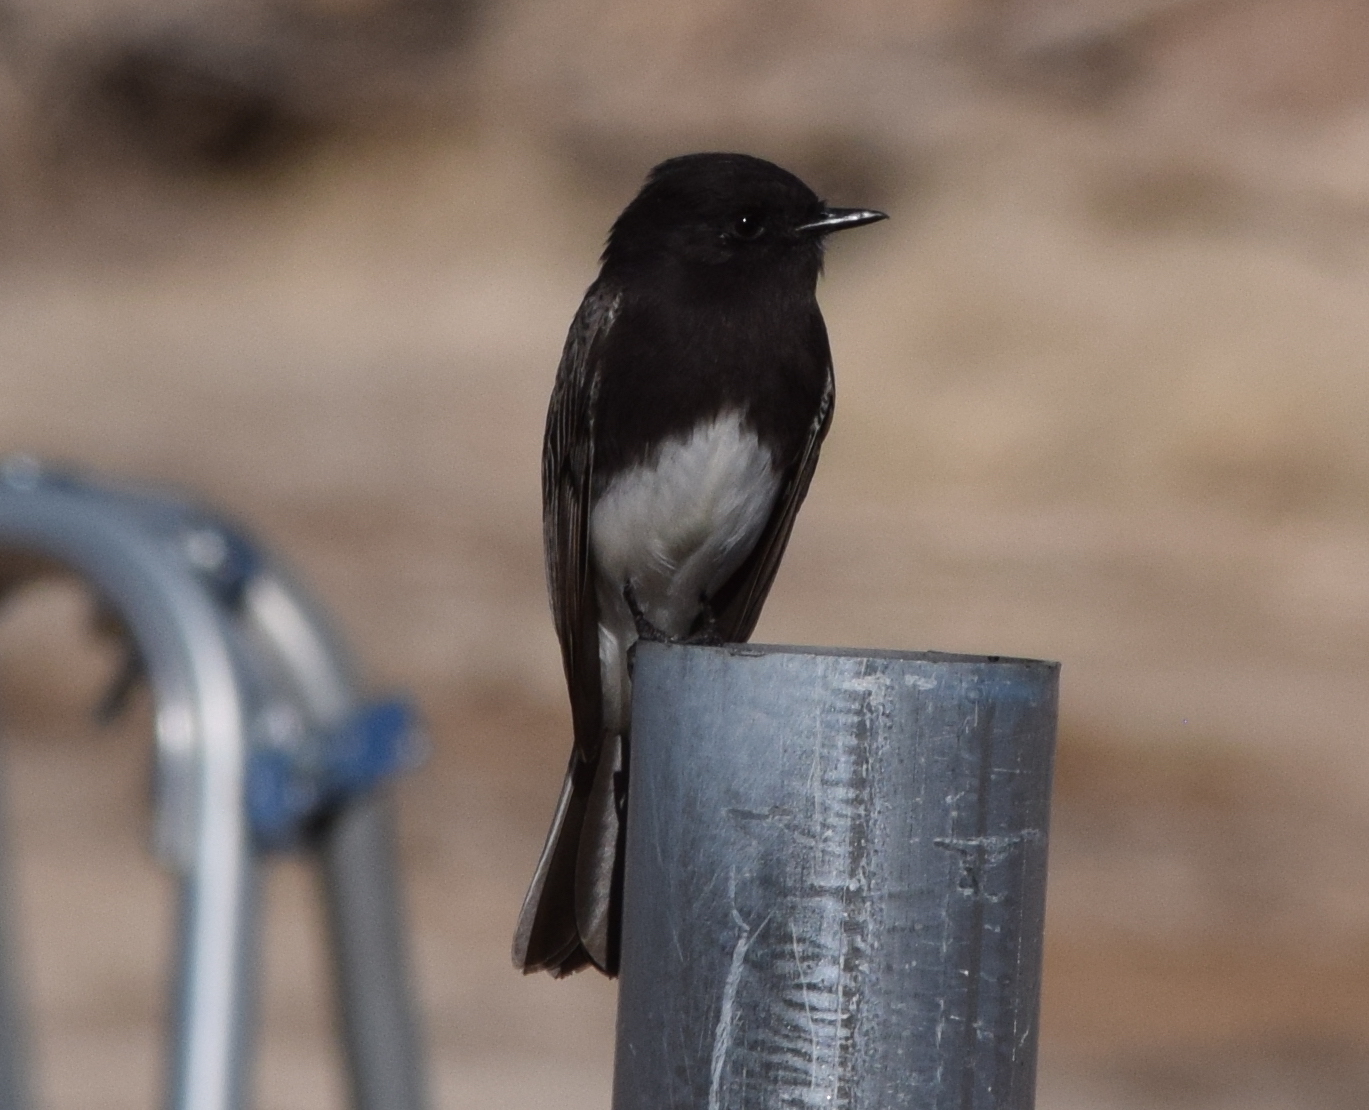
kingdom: Animalia
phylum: Chordata
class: Aves
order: Passeriformes
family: Tyrannidae
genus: Sayornis
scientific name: Sayornis nigricans
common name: Black phoebe
